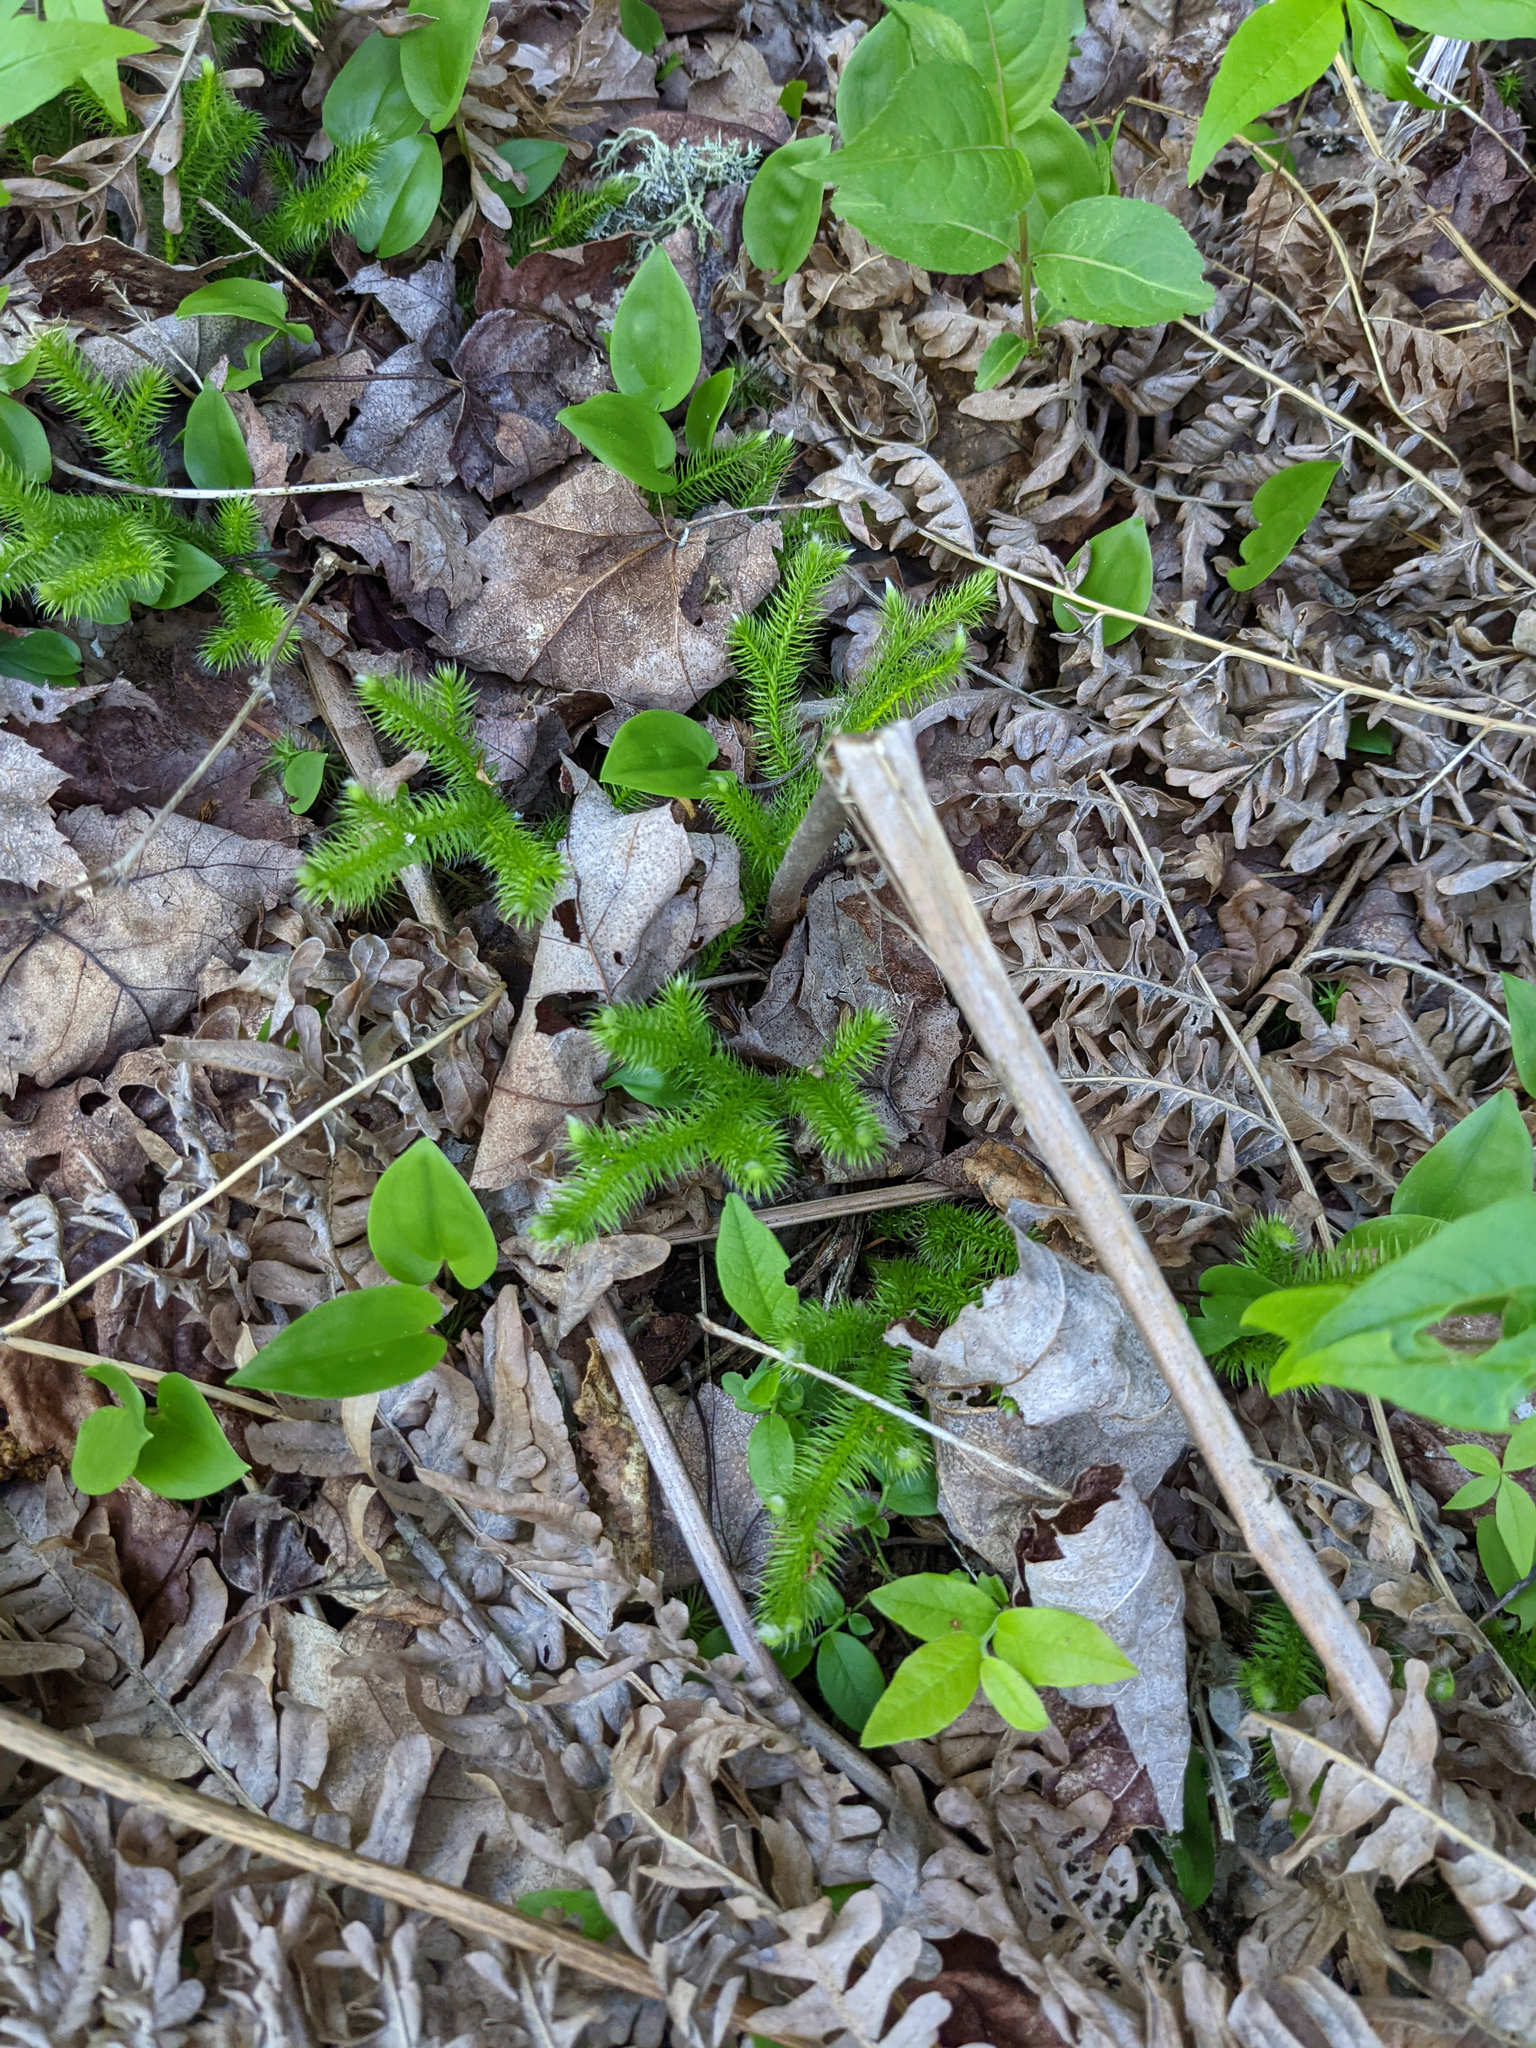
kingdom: Plantae
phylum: Tracheophyta
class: Lycopodiopsida
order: Lycopodiales
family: Lycopodiaceae
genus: Lycopodium
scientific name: Lycopodium clavatum
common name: Stag's-horn clubmoss
